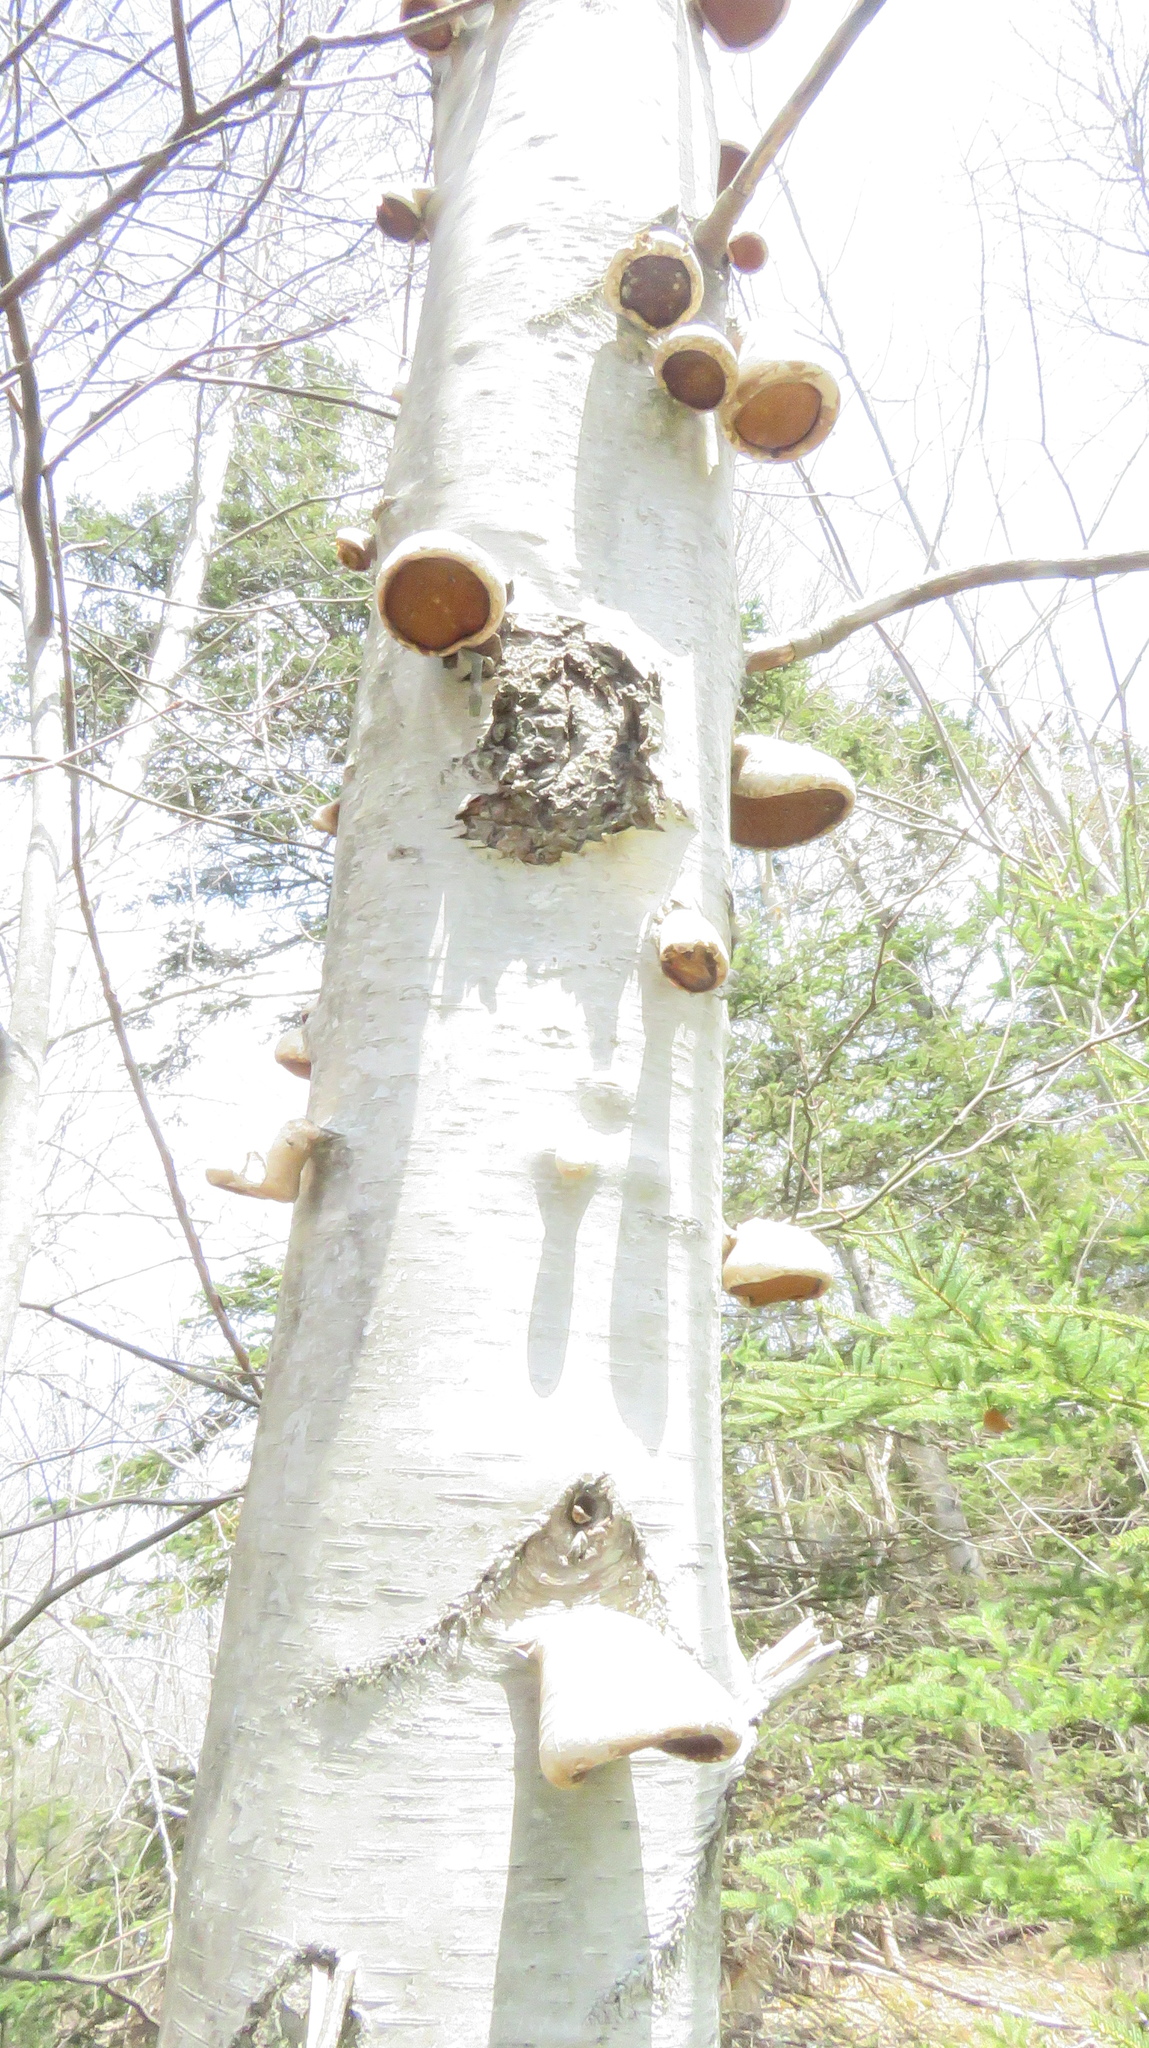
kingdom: Fungi
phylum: Basidiomycota
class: Agaricomycetes
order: Polyporales
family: Fomitopsidaceae
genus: Fomitopsis
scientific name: Fomitopsis betulina
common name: Birch polypore
